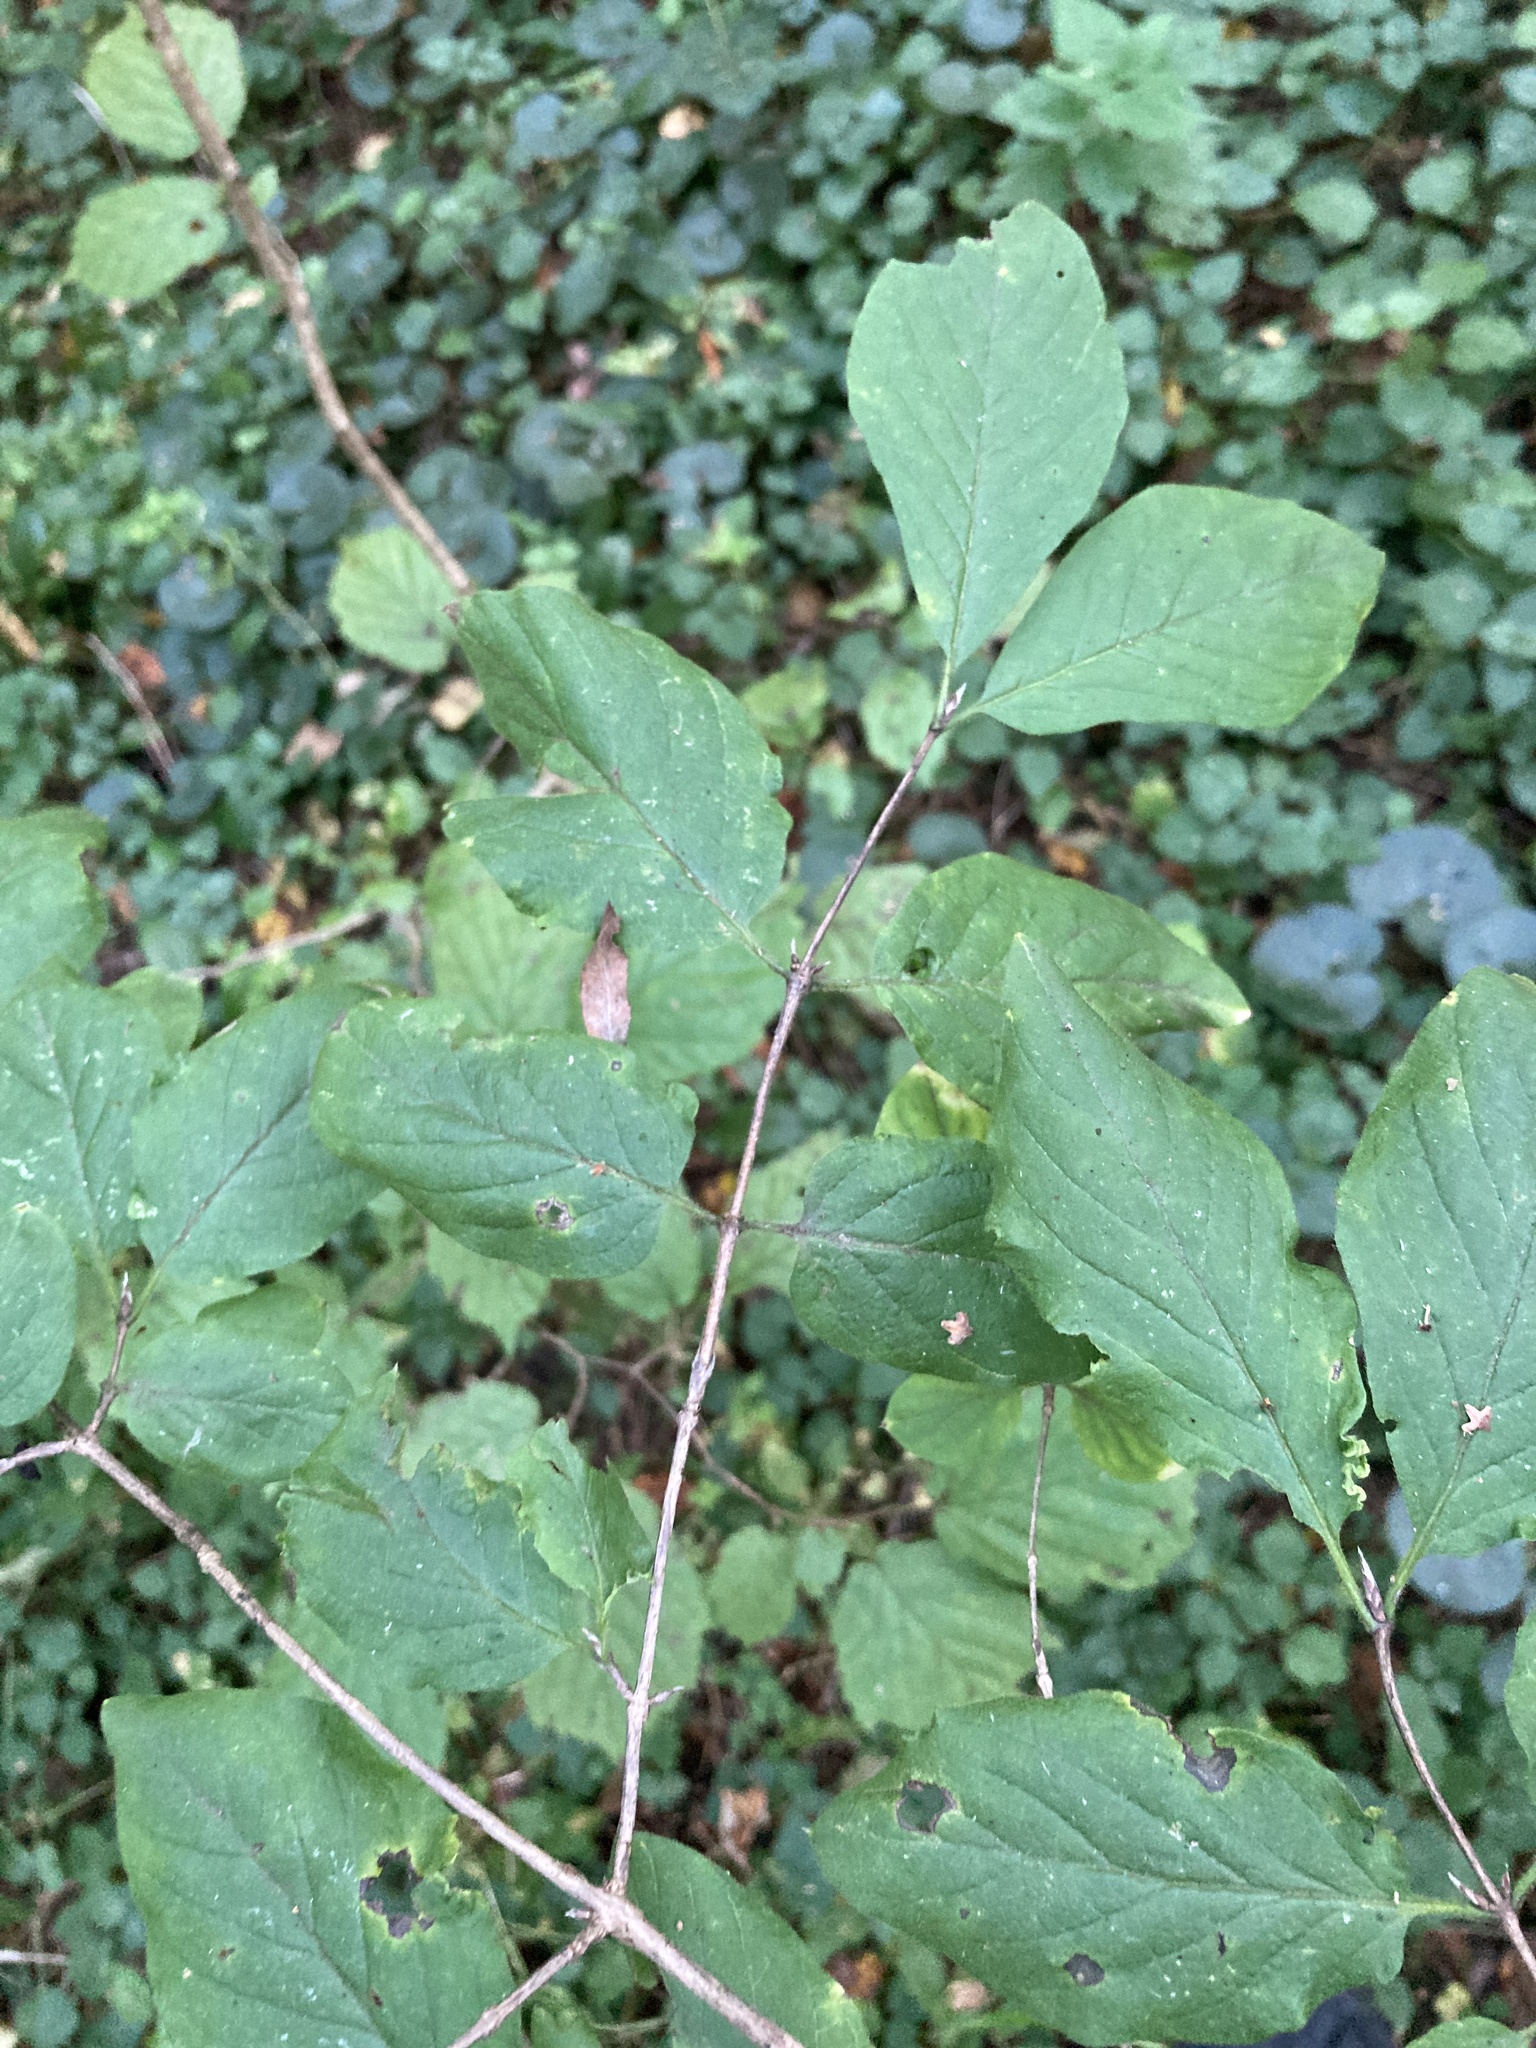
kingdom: Plantae
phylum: Tracheophyta
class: Magnoliopsida
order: Dipsacales
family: Caprifoliaceae
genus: Lonicera
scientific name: Lonicera xylosteum
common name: Fly honeysuckle
